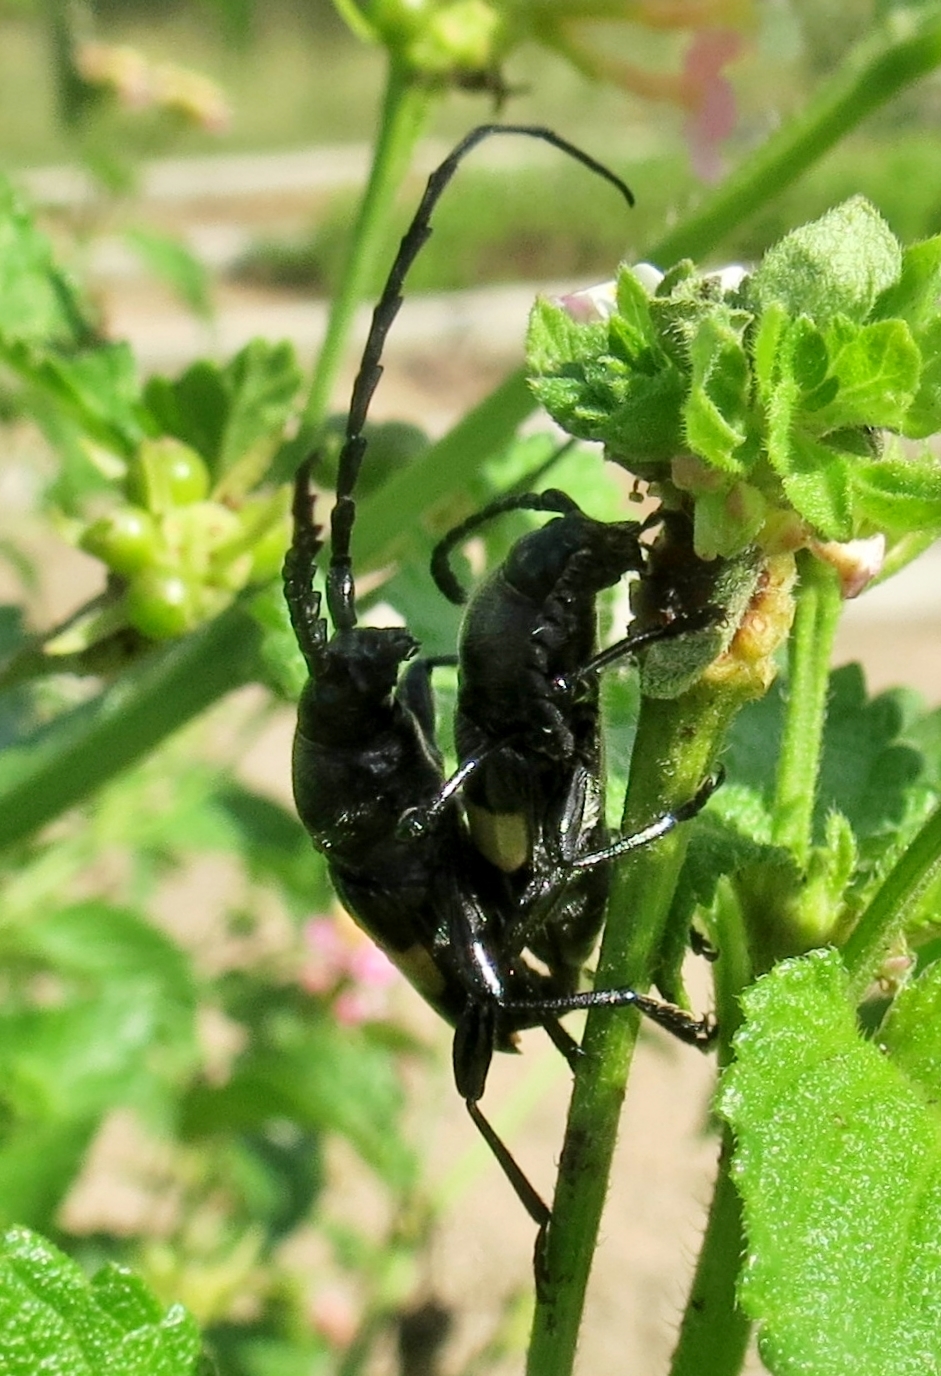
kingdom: Animalia
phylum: Arthropoda
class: Insecta
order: Coleoptera
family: Cerambycidae
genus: Lissonotus
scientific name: Lissonotus flavocinctus
